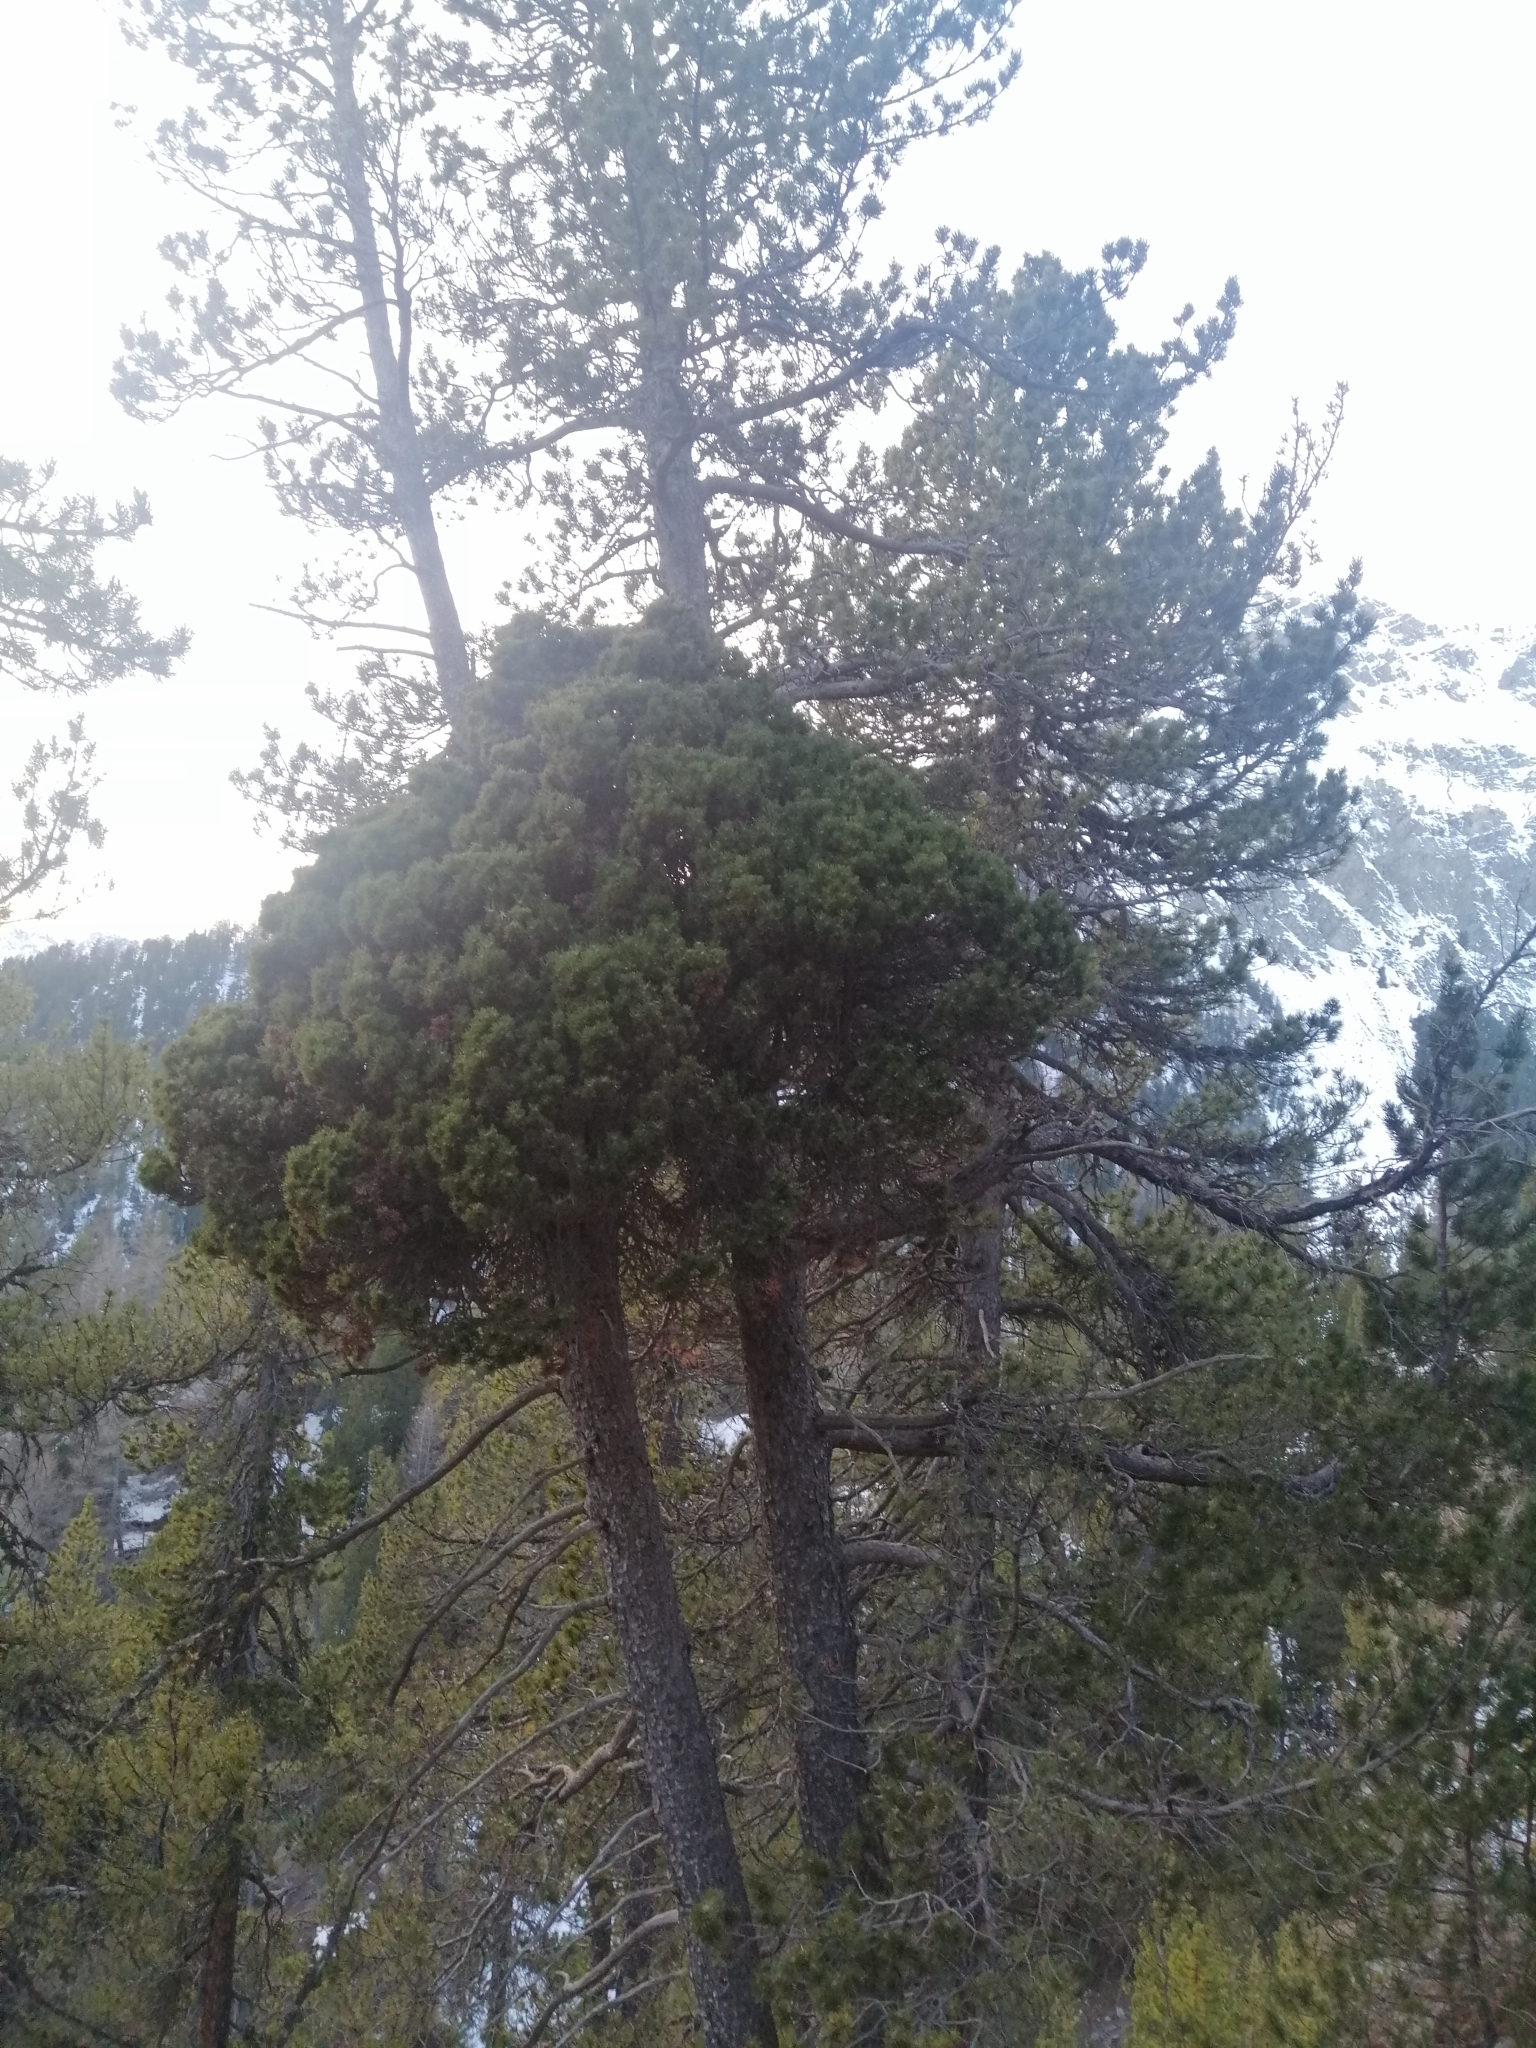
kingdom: Bacteria
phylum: Firmicutes
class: Bacilli
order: Acholeplasmatales
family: Acholeplasmataceae
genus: Phytoplasma
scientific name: Phytoplasma pini
